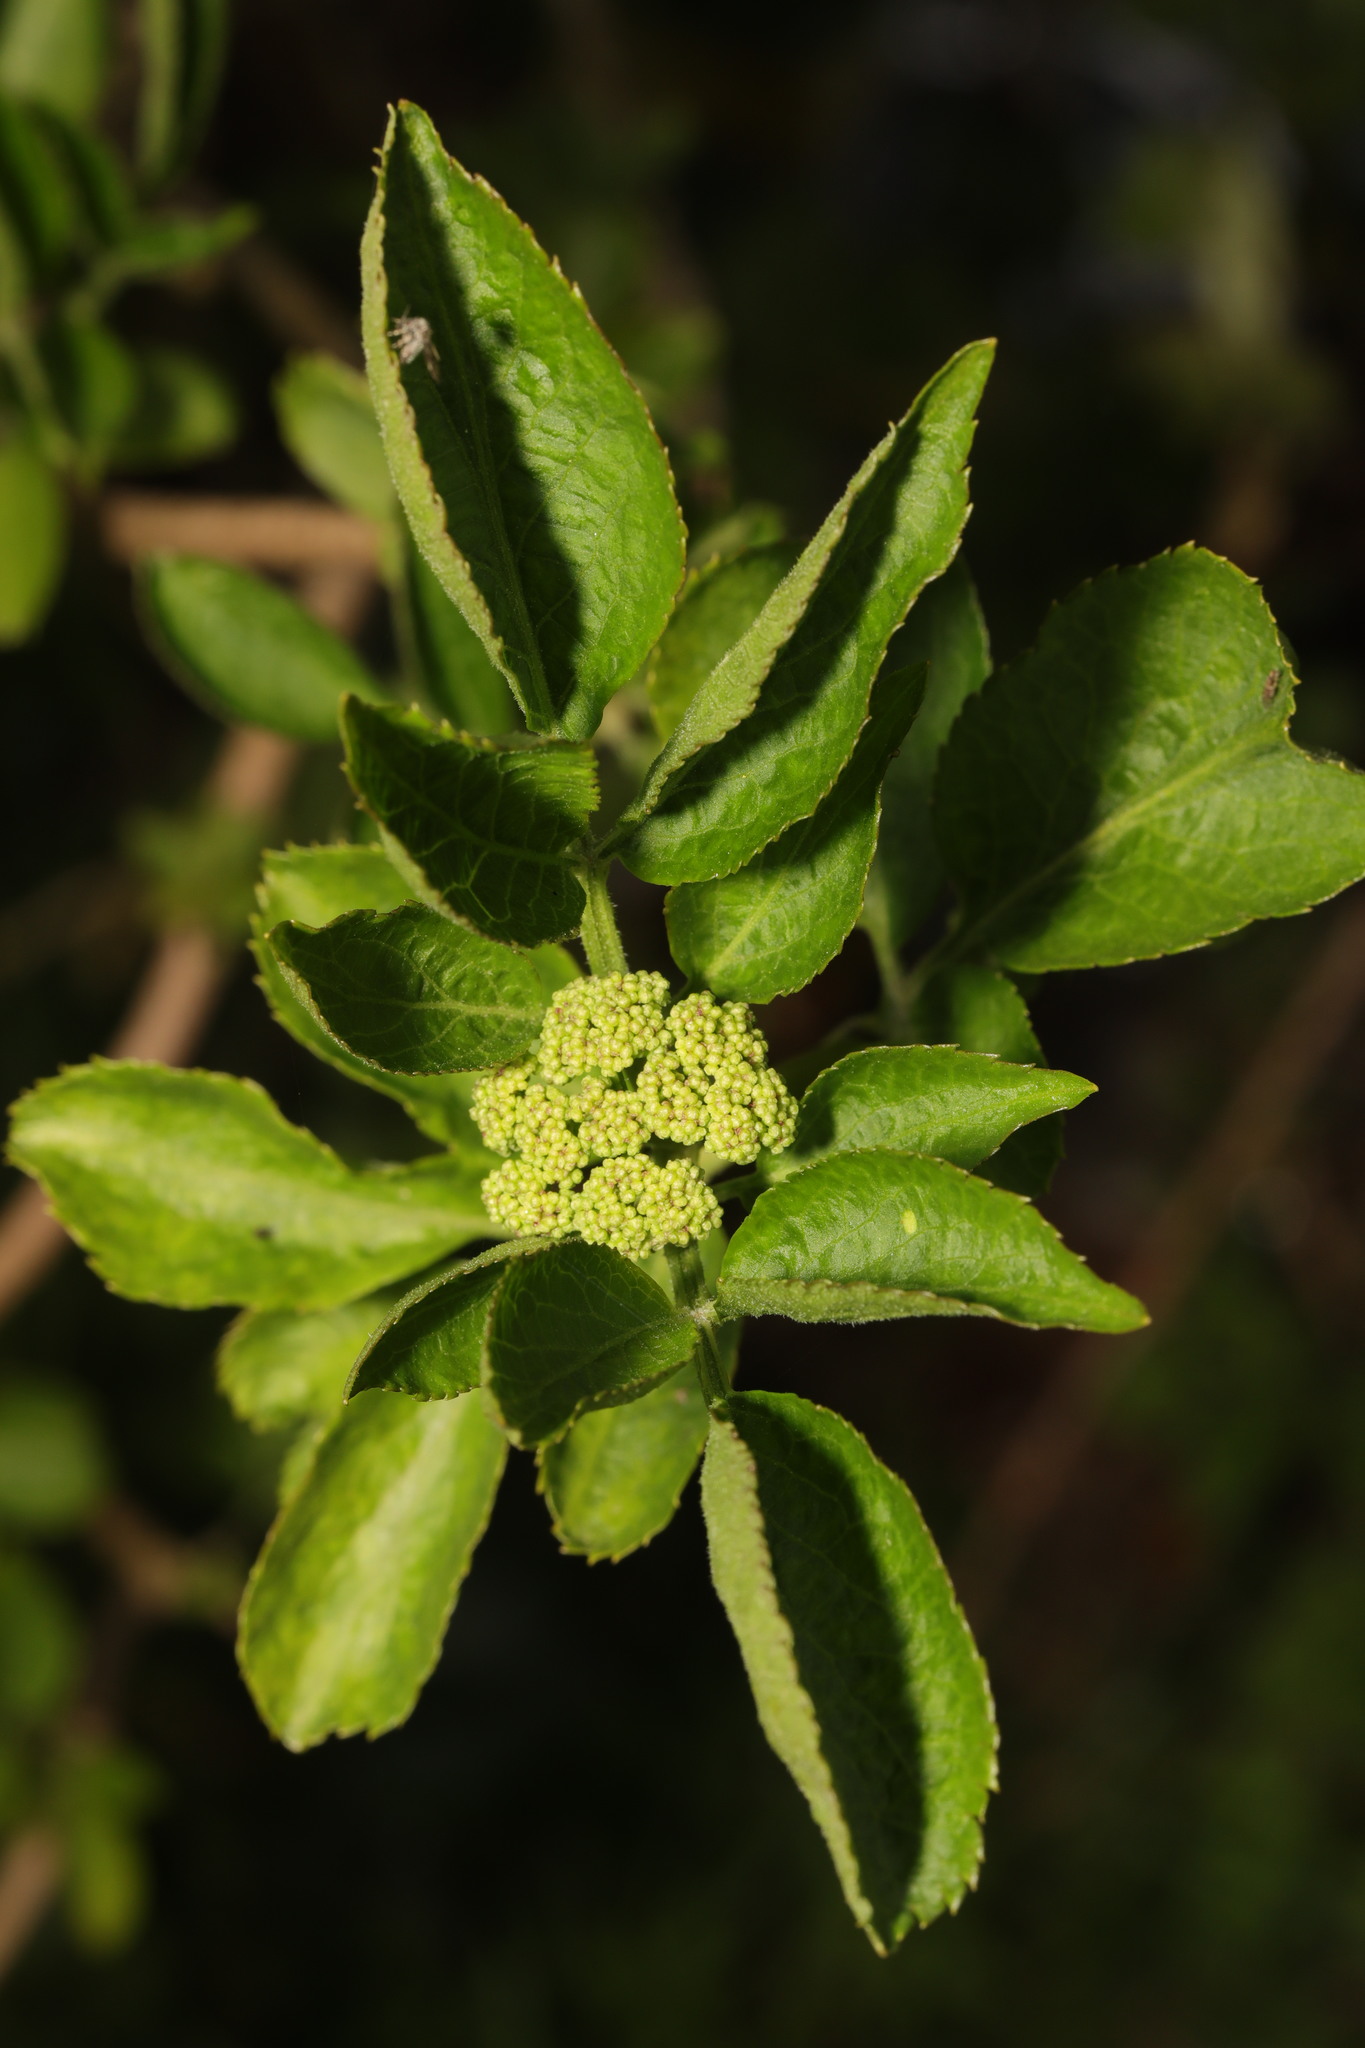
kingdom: Plantae
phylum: Tracheophyta
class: Magnoliopsida
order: Dipsacales
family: Viburnaceae
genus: Sambucus
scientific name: Sambucus nigra
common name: Elder
